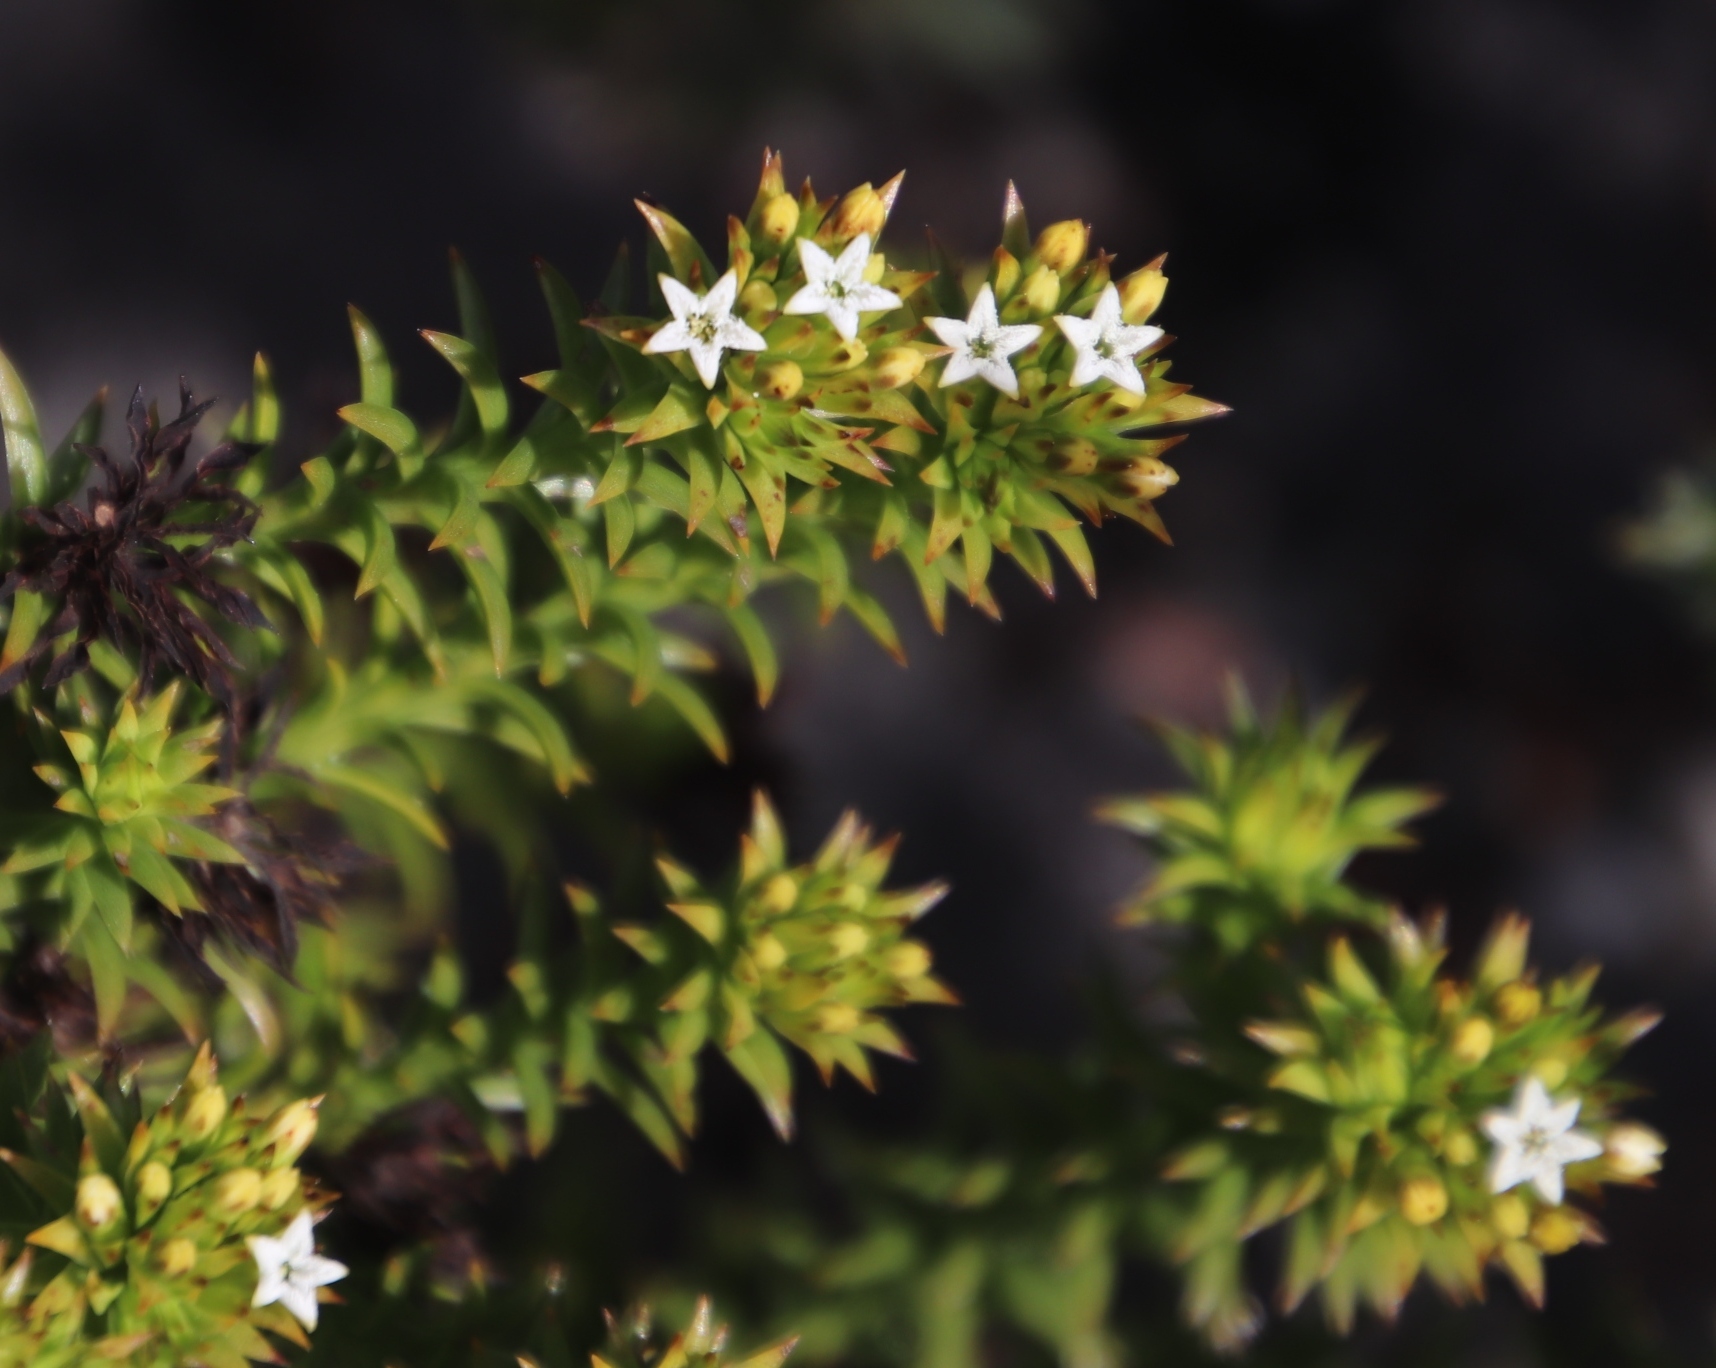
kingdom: Plantae
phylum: Tracheophyta
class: Magnoliopsida
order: Santalales
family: Thesiaceae
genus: Thesium
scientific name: Thesium viridifolium
